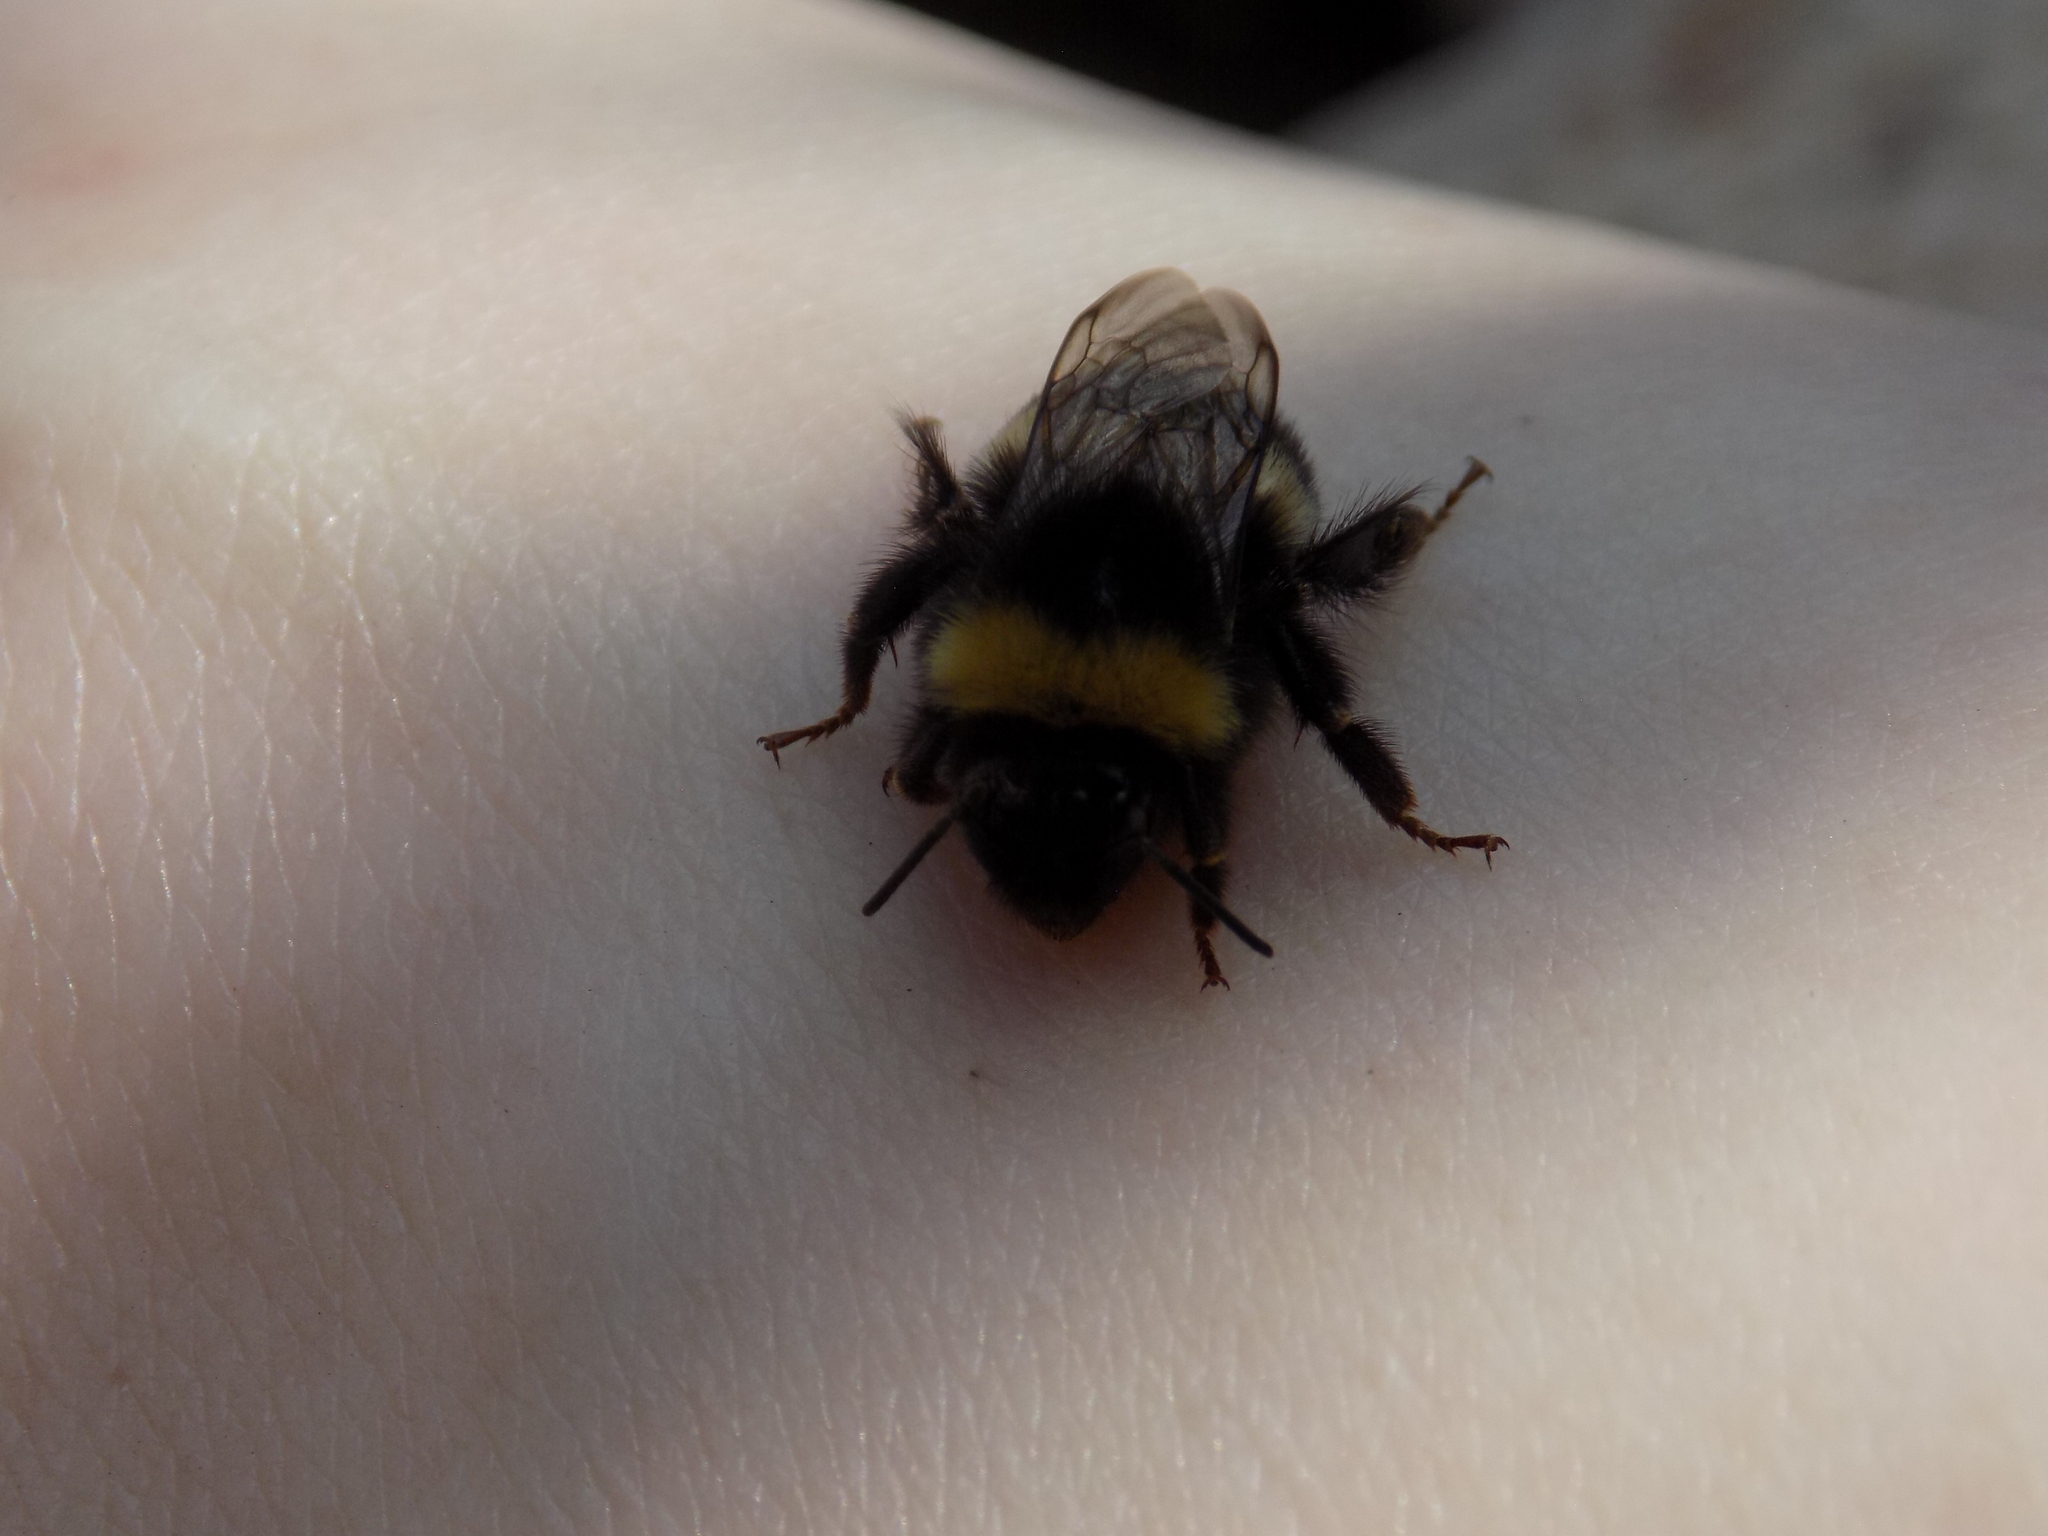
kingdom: Animalia
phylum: Arthropoda
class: Insecta
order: Hymenoptera
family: Apidae
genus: Bombus
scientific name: Bombus
